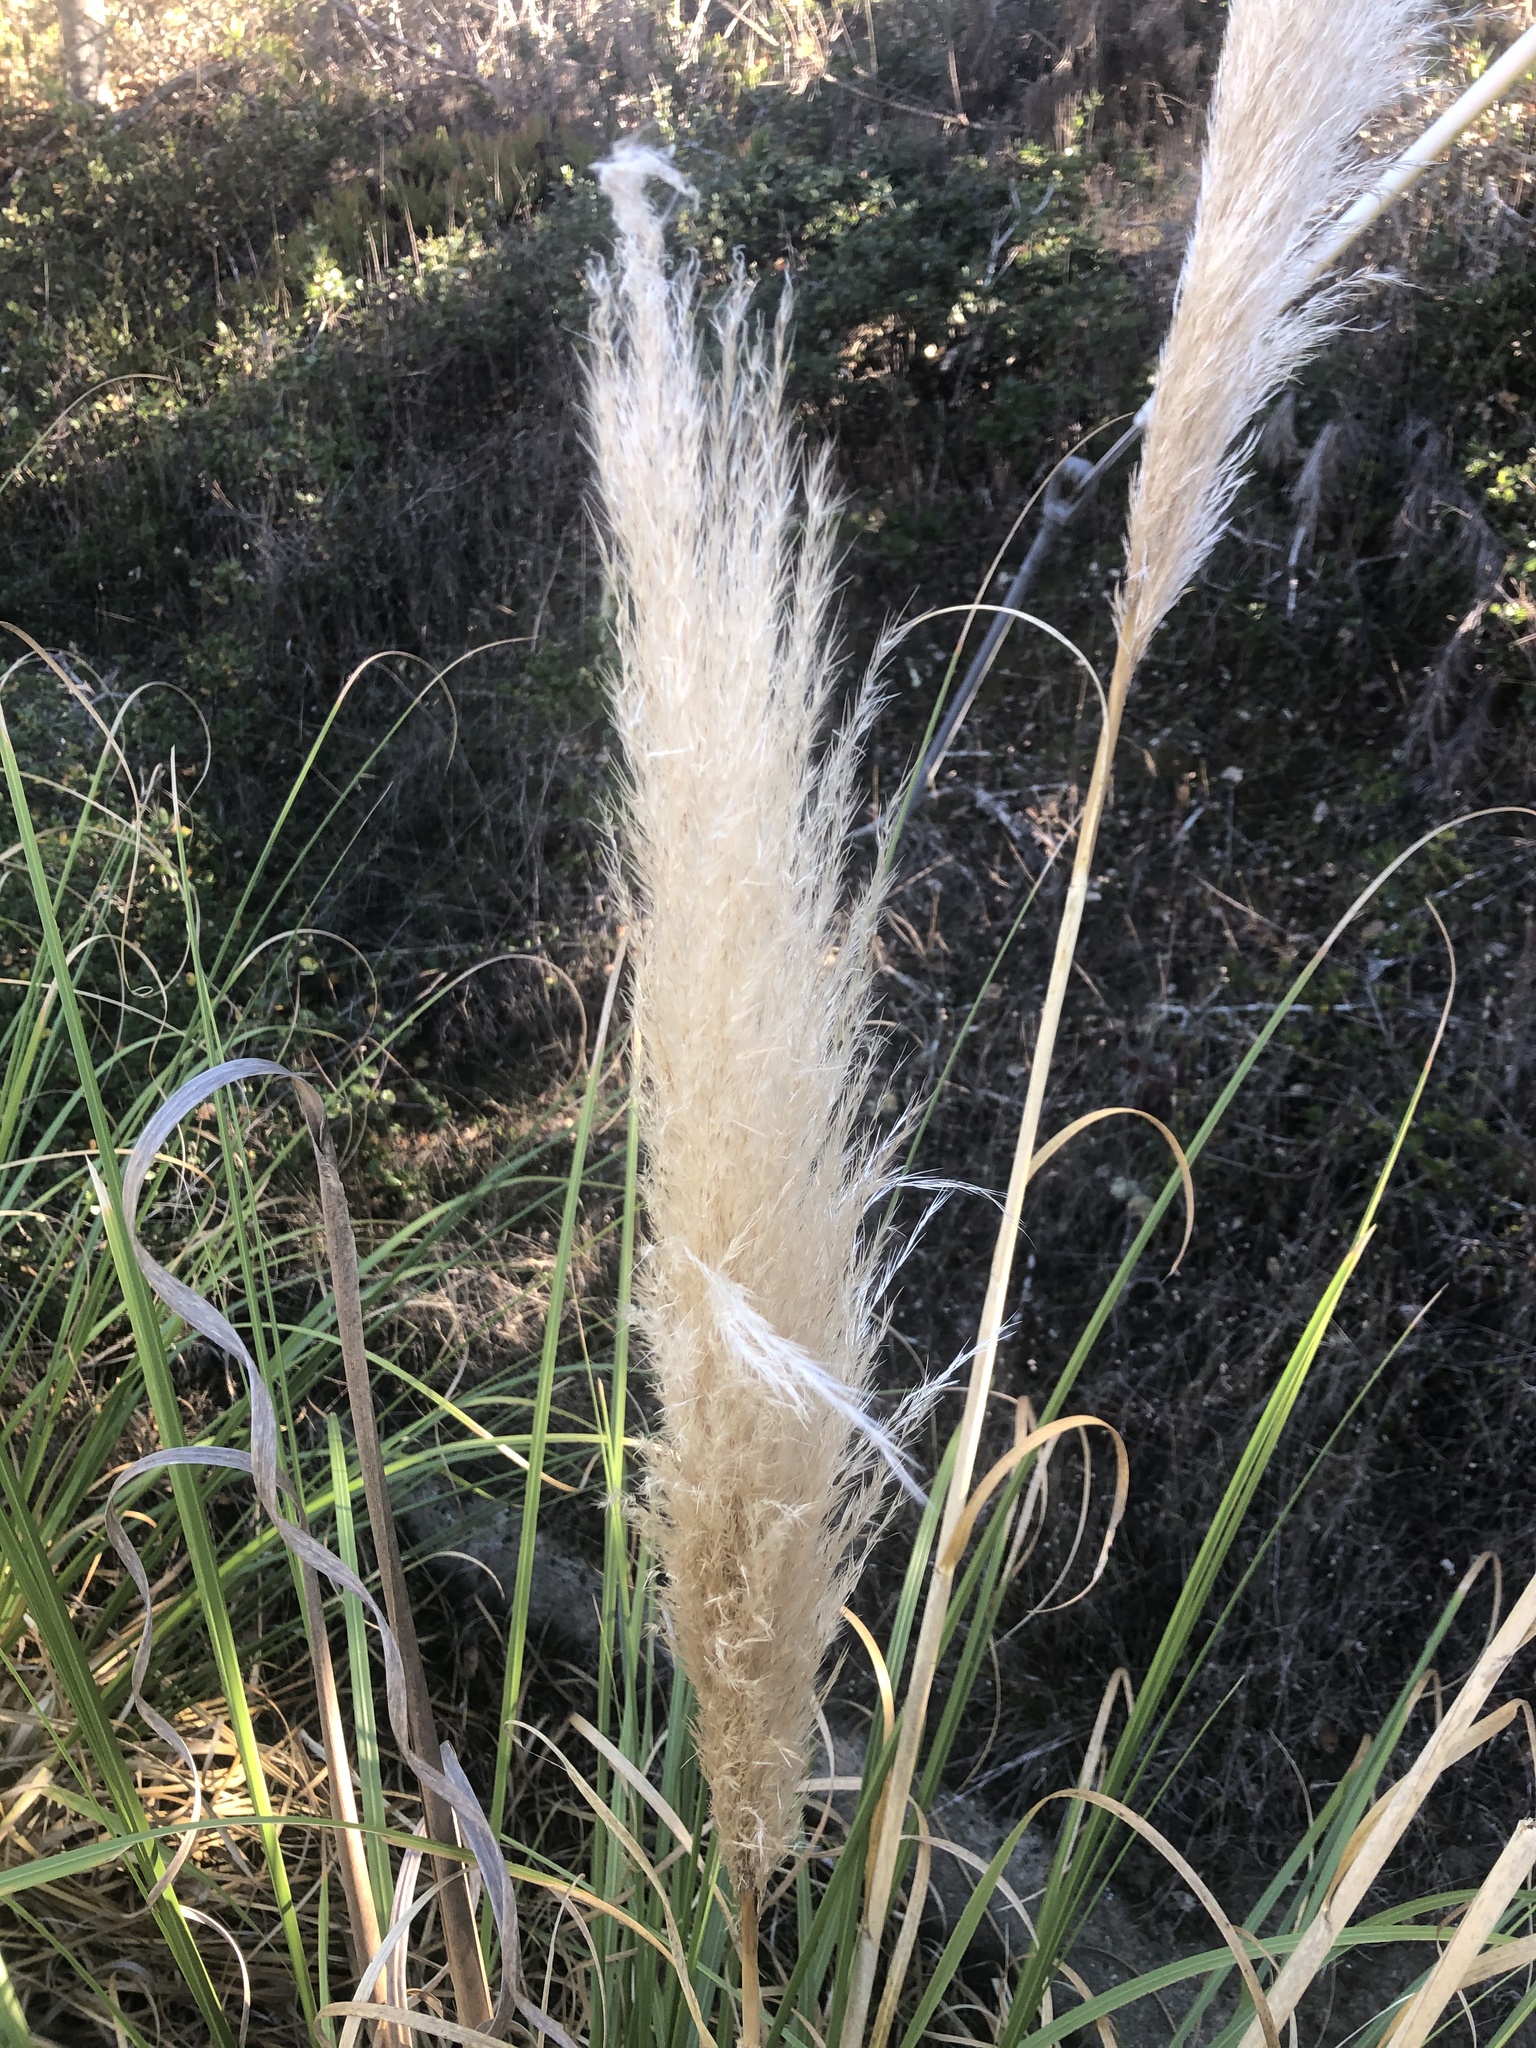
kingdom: Plantae
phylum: Tracheophyta
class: Liliopsida
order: Poales
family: Poaceae
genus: Cortaderia
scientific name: Cortaderia selloana
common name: Uruguayan pampas grass
